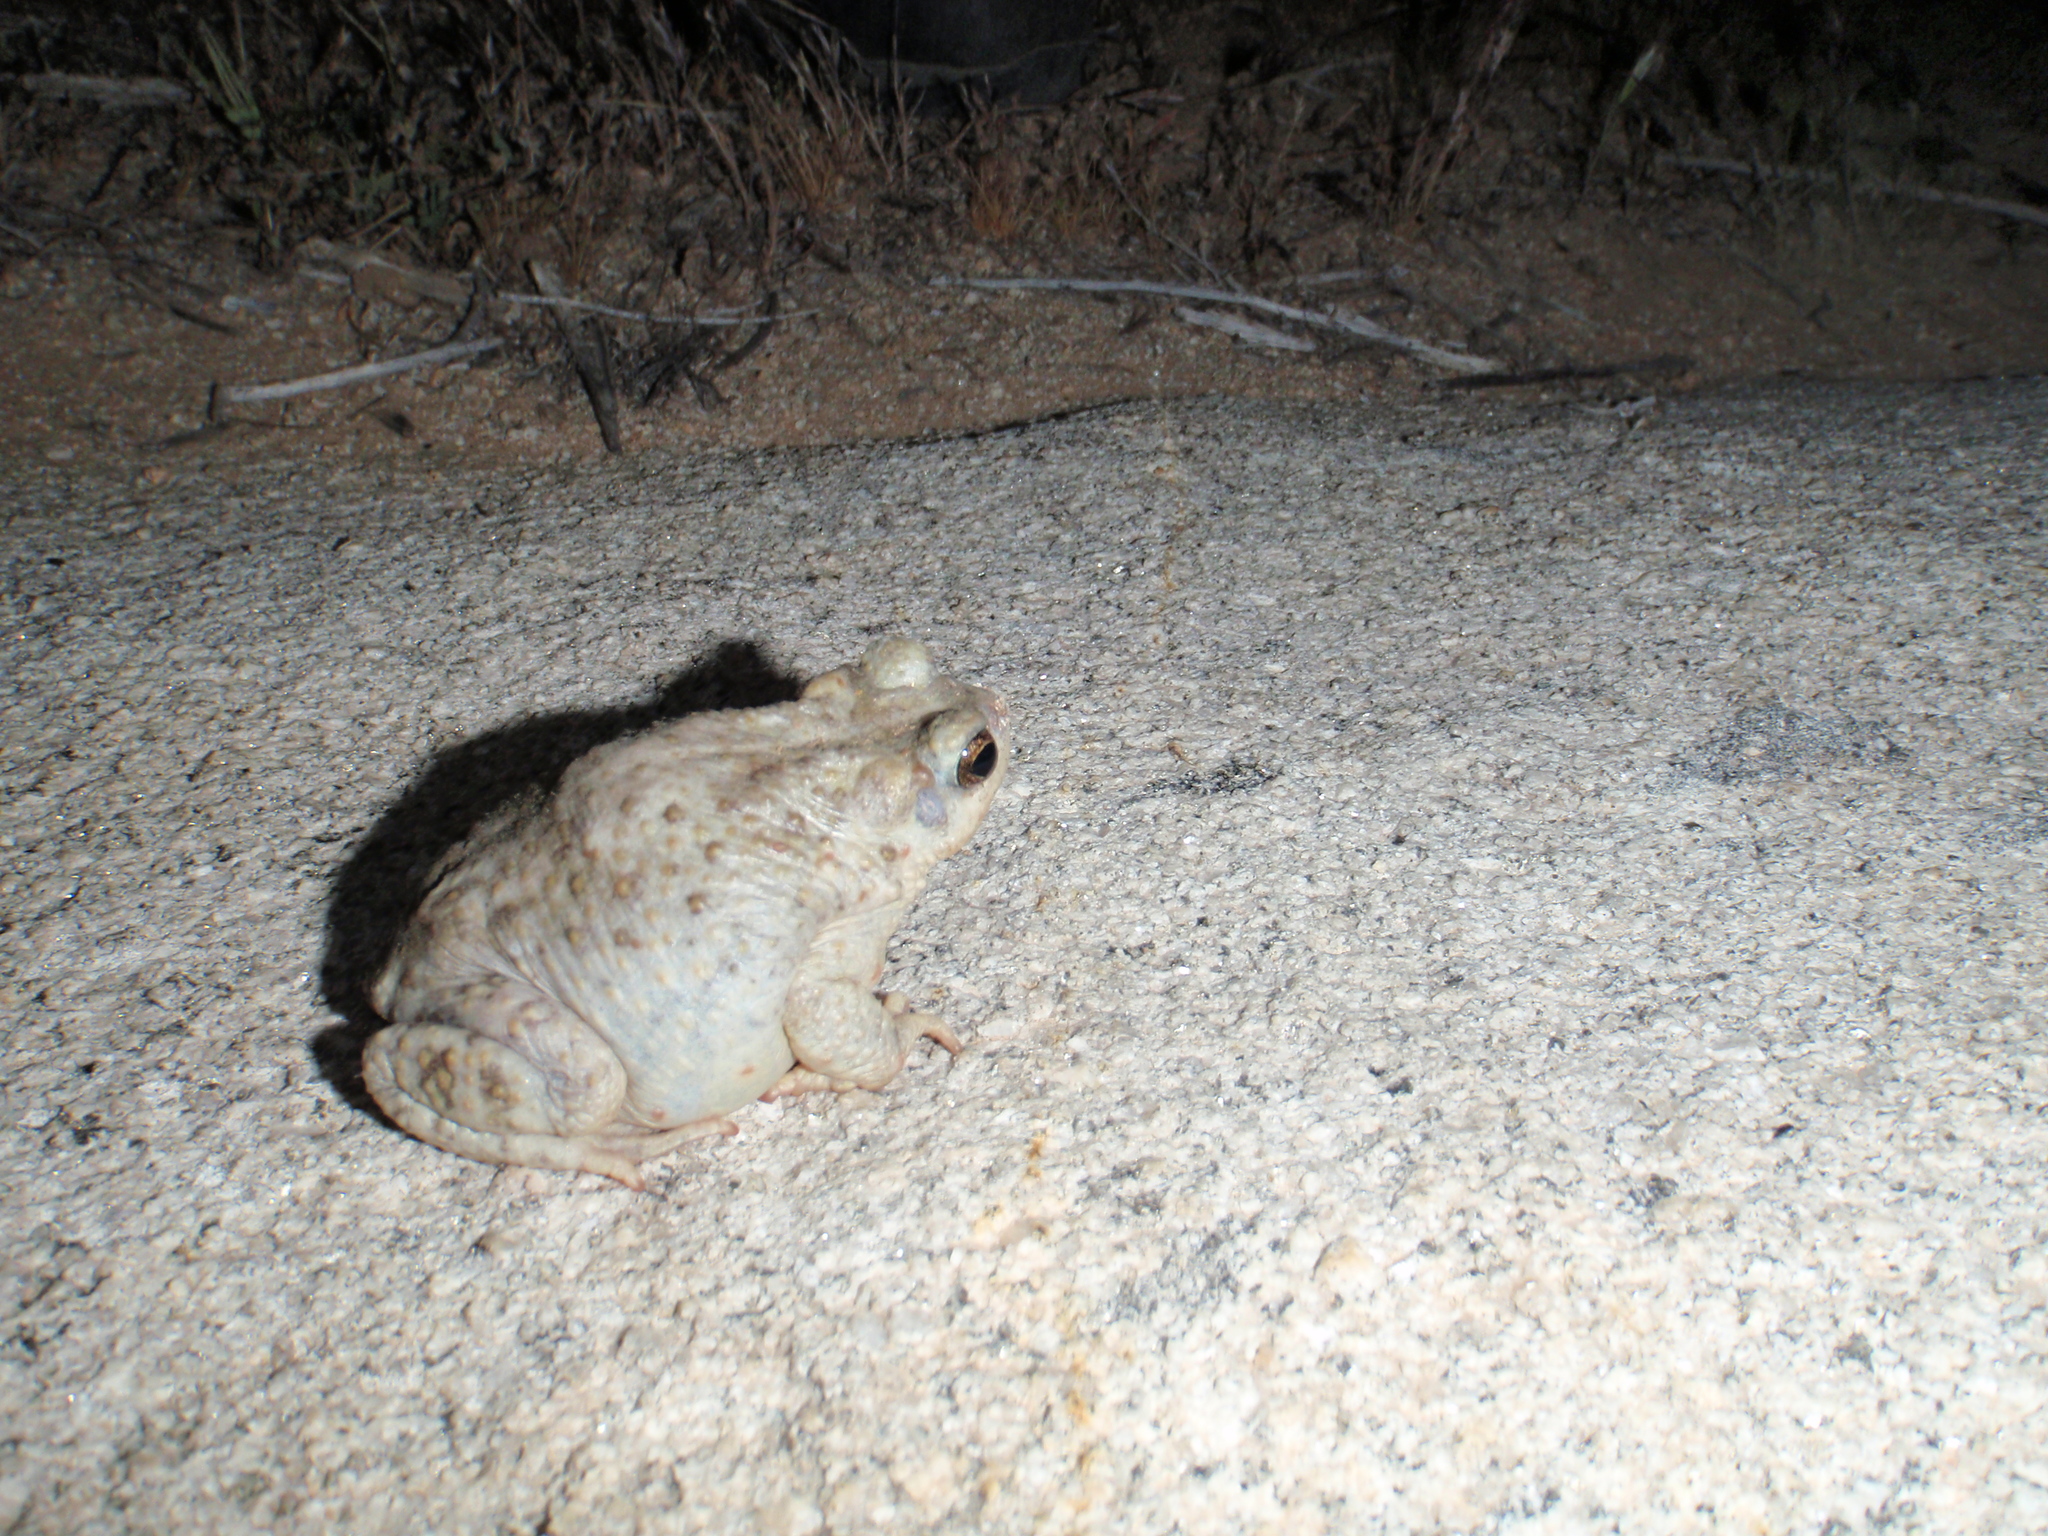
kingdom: Animalia
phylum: Chordata
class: Amphibia
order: Anura
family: Bufonidae
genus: Anaxyrus
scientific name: Anaxyrus punctatus
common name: Red-spotted toad
